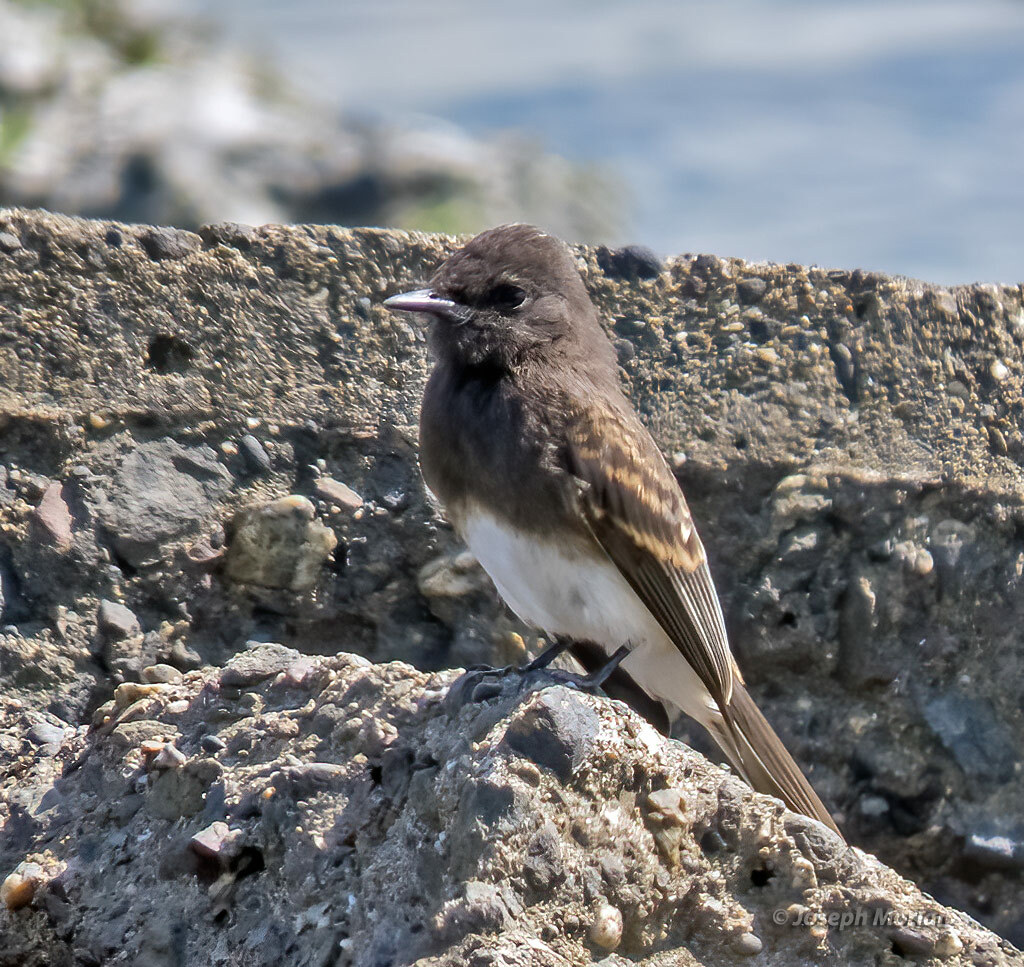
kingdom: Animalia
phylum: Chordata
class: Aves
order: Passeriformes
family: Tyrannidae
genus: Sayornis
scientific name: Sayornis nigricans
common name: Black phoebe
